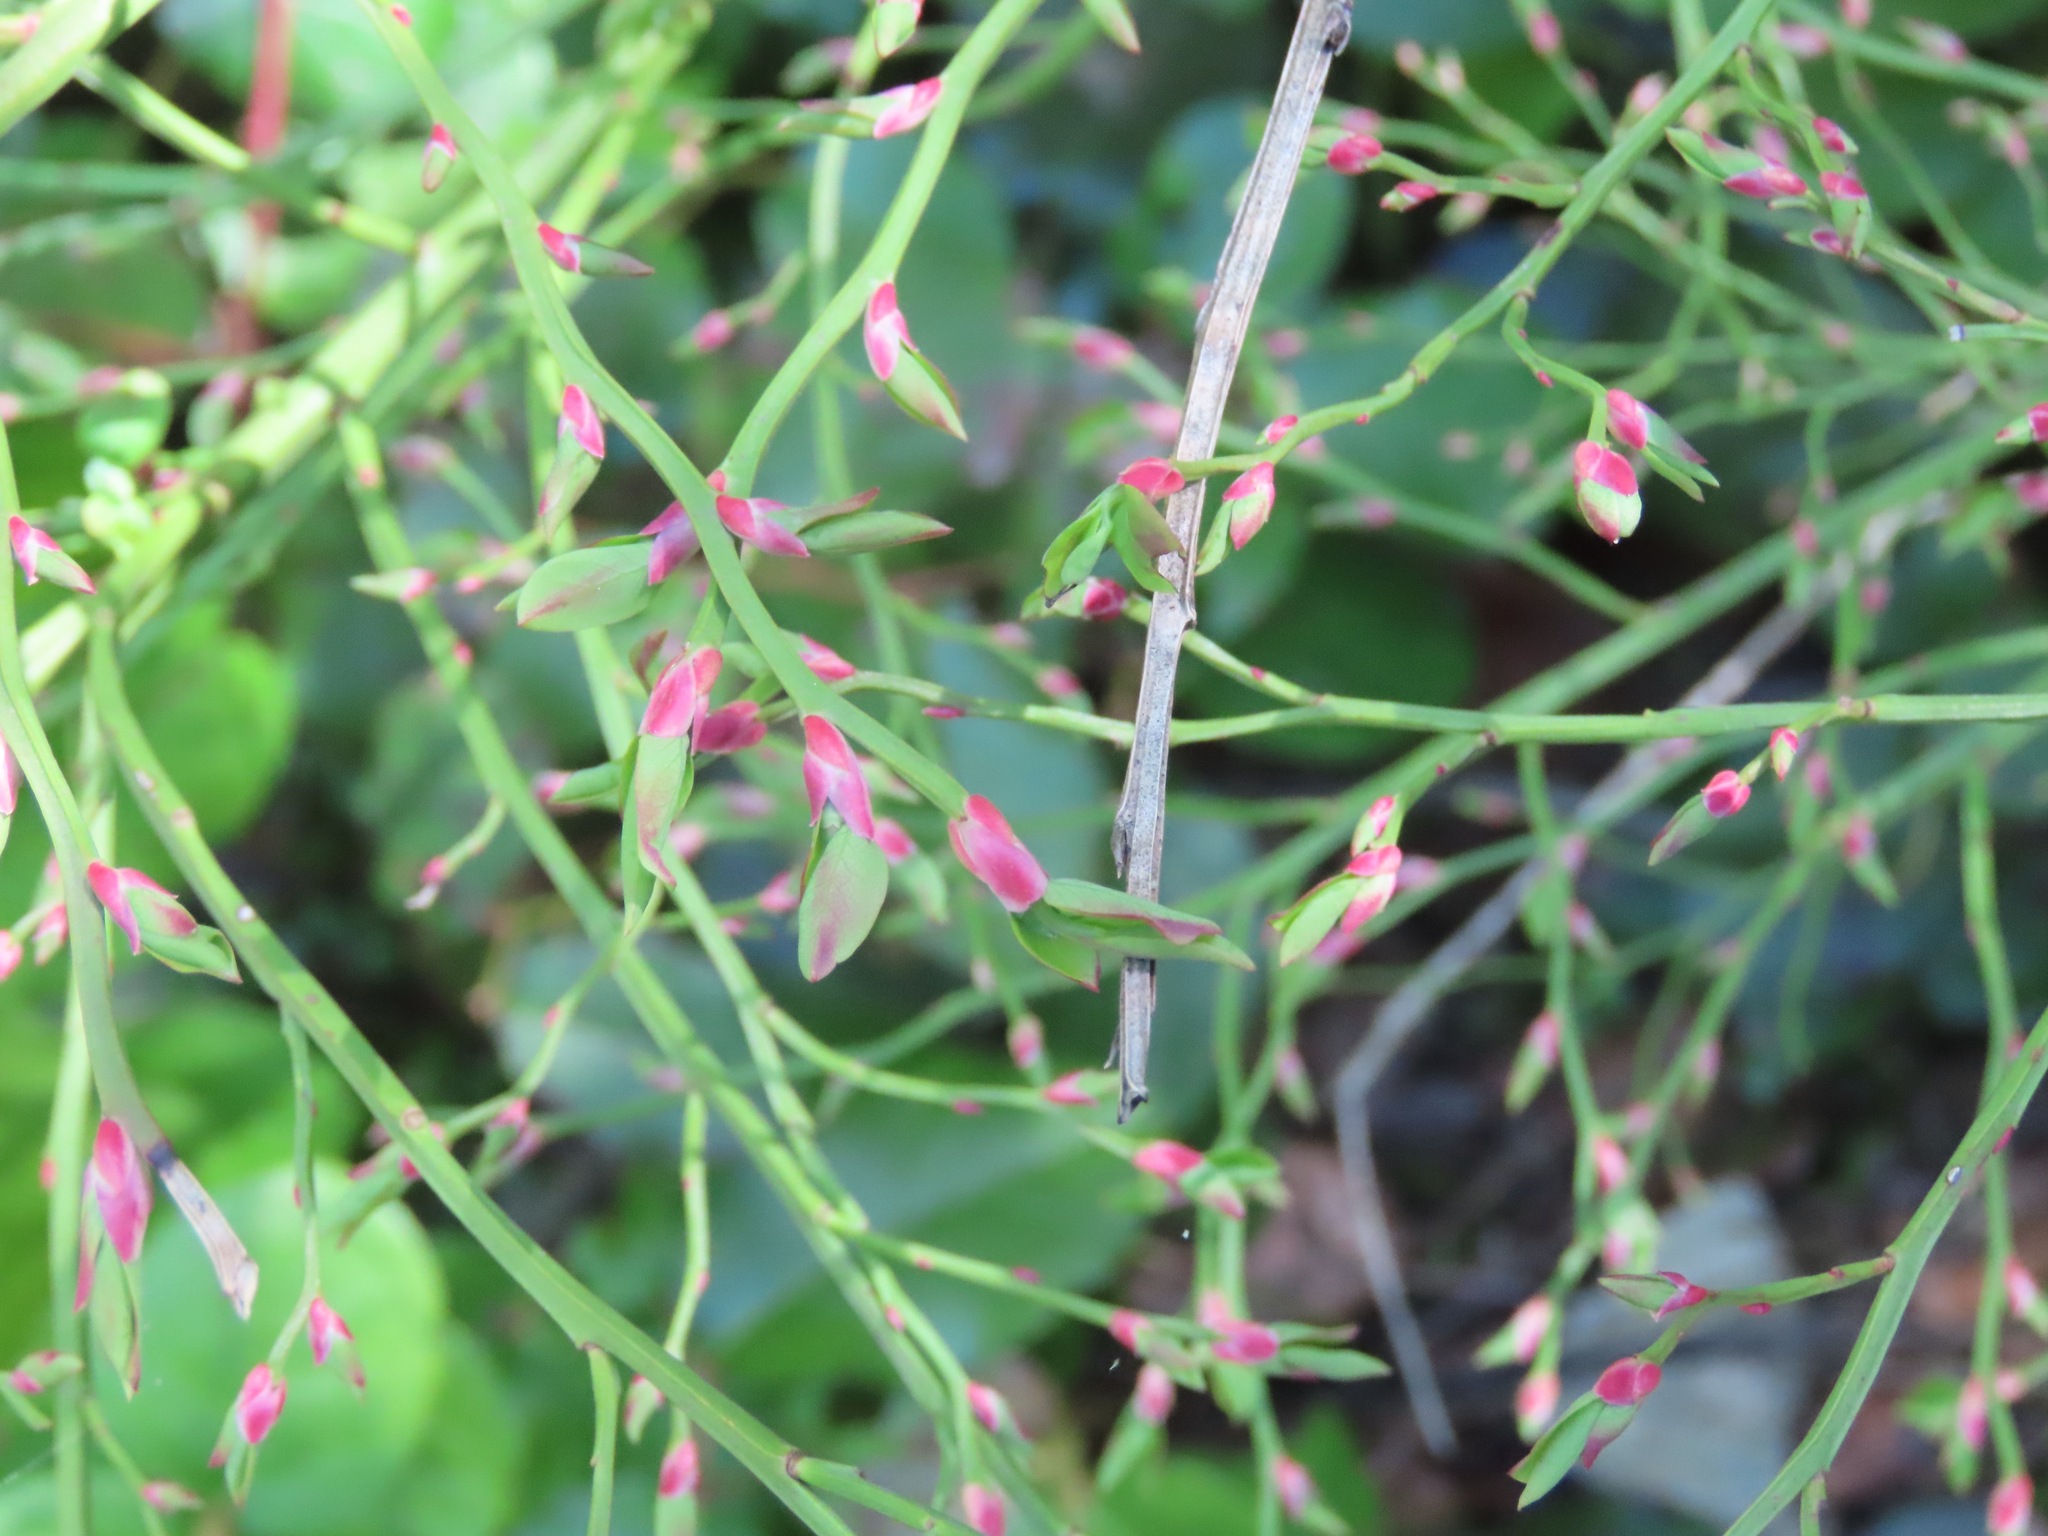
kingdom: Plantae
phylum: Tracheophyta
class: Magnoliopsida
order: Ericales
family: Ericaceae
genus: Vaccinium
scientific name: Vaccinium parvifolium
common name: Red-huckleberry
